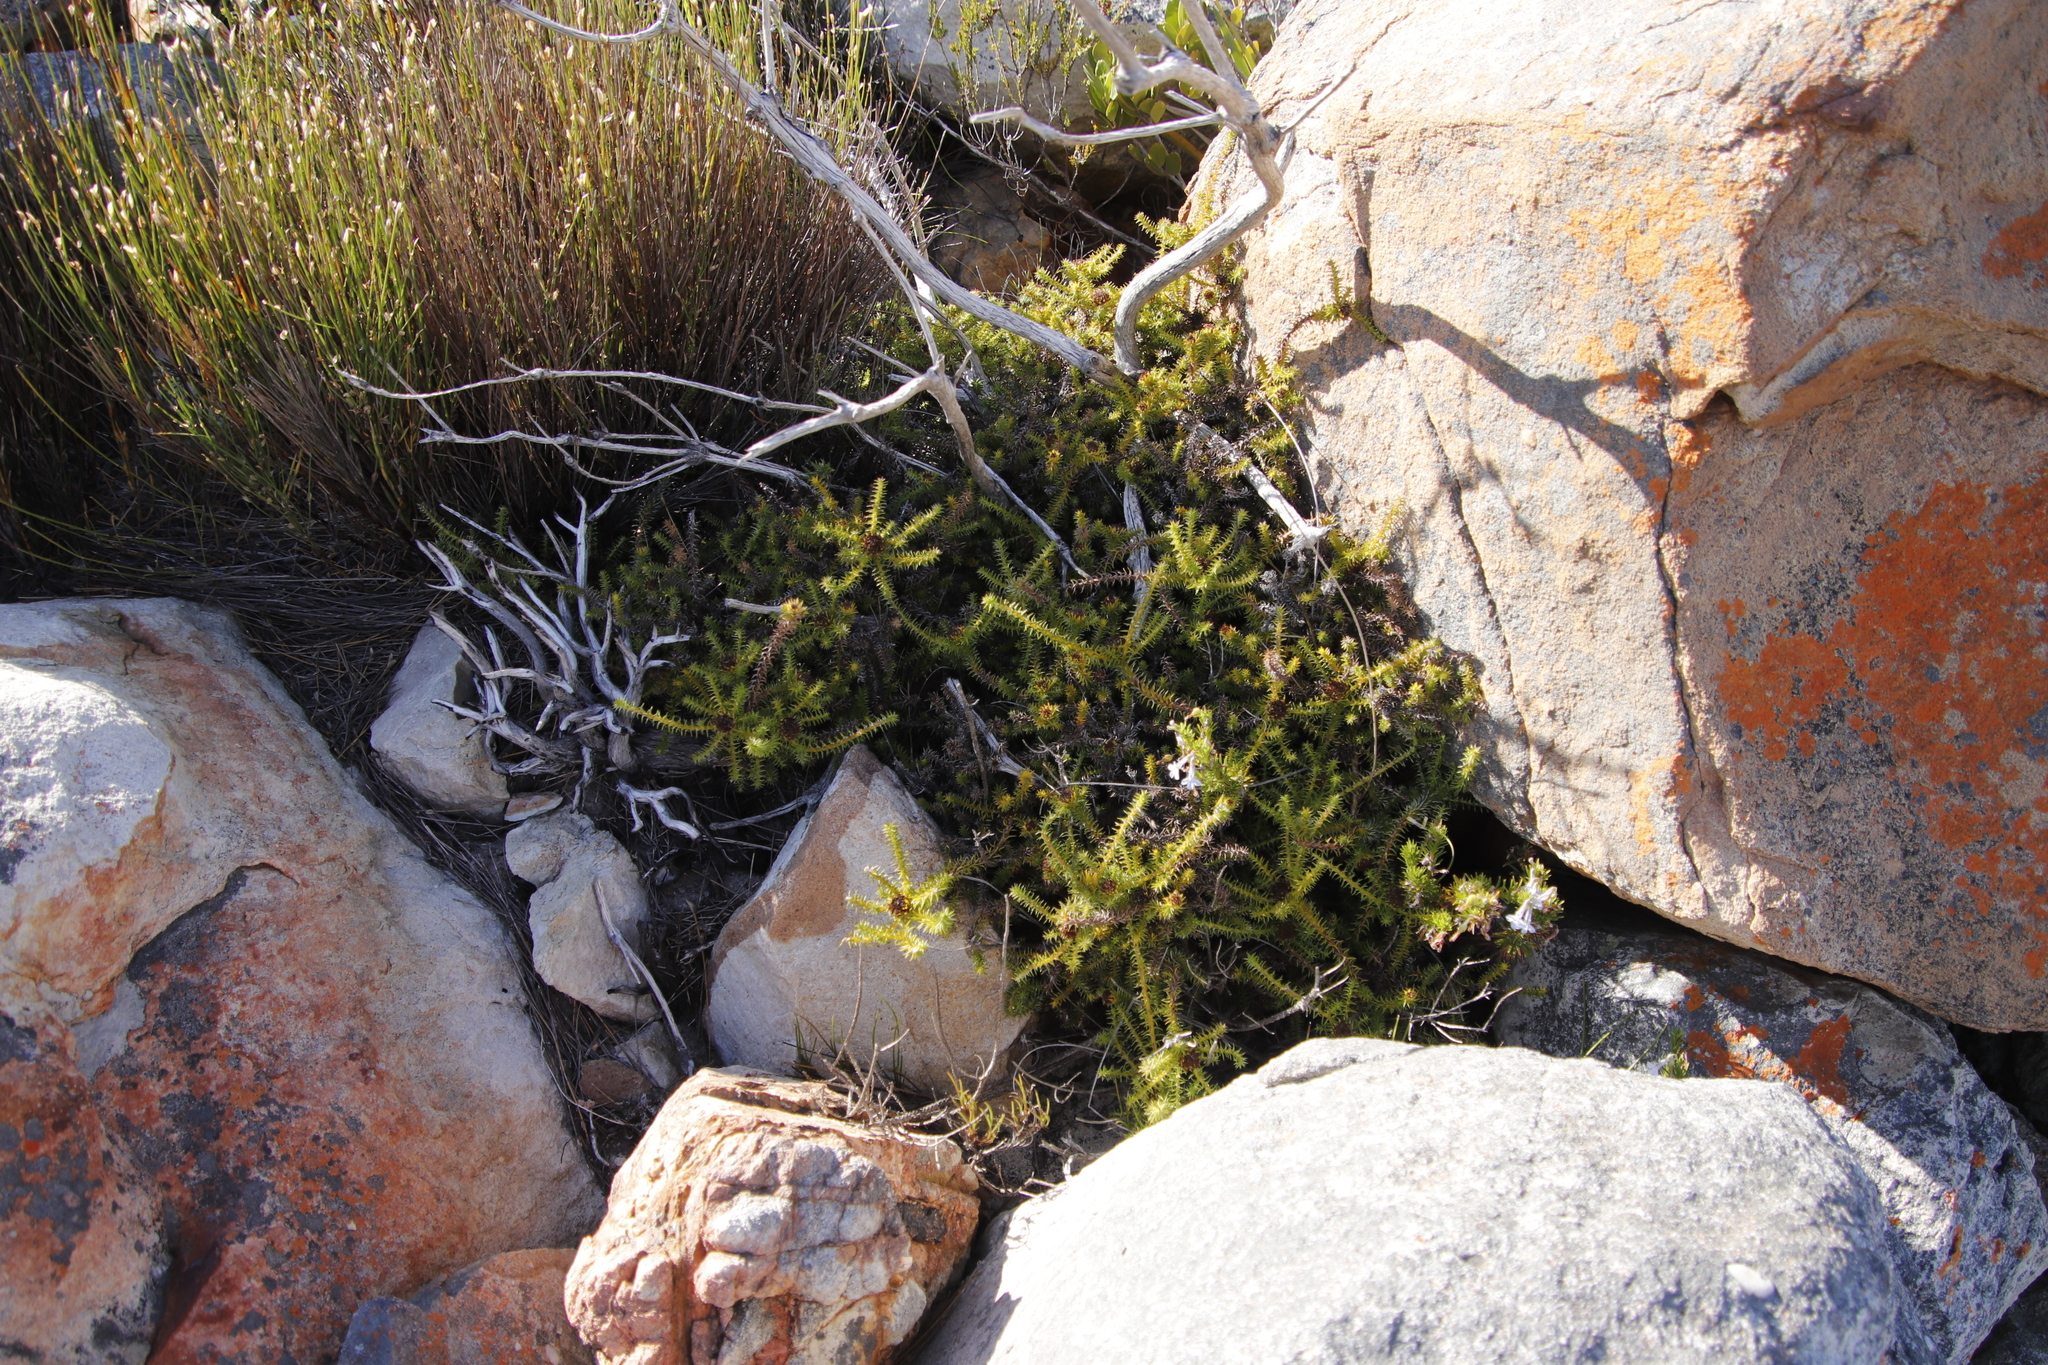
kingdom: Plantae
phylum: Tracheophyta
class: Magnoliopsida
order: Asterales
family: Asteraceae
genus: Stoebe
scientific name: Stoebe aethiopica
